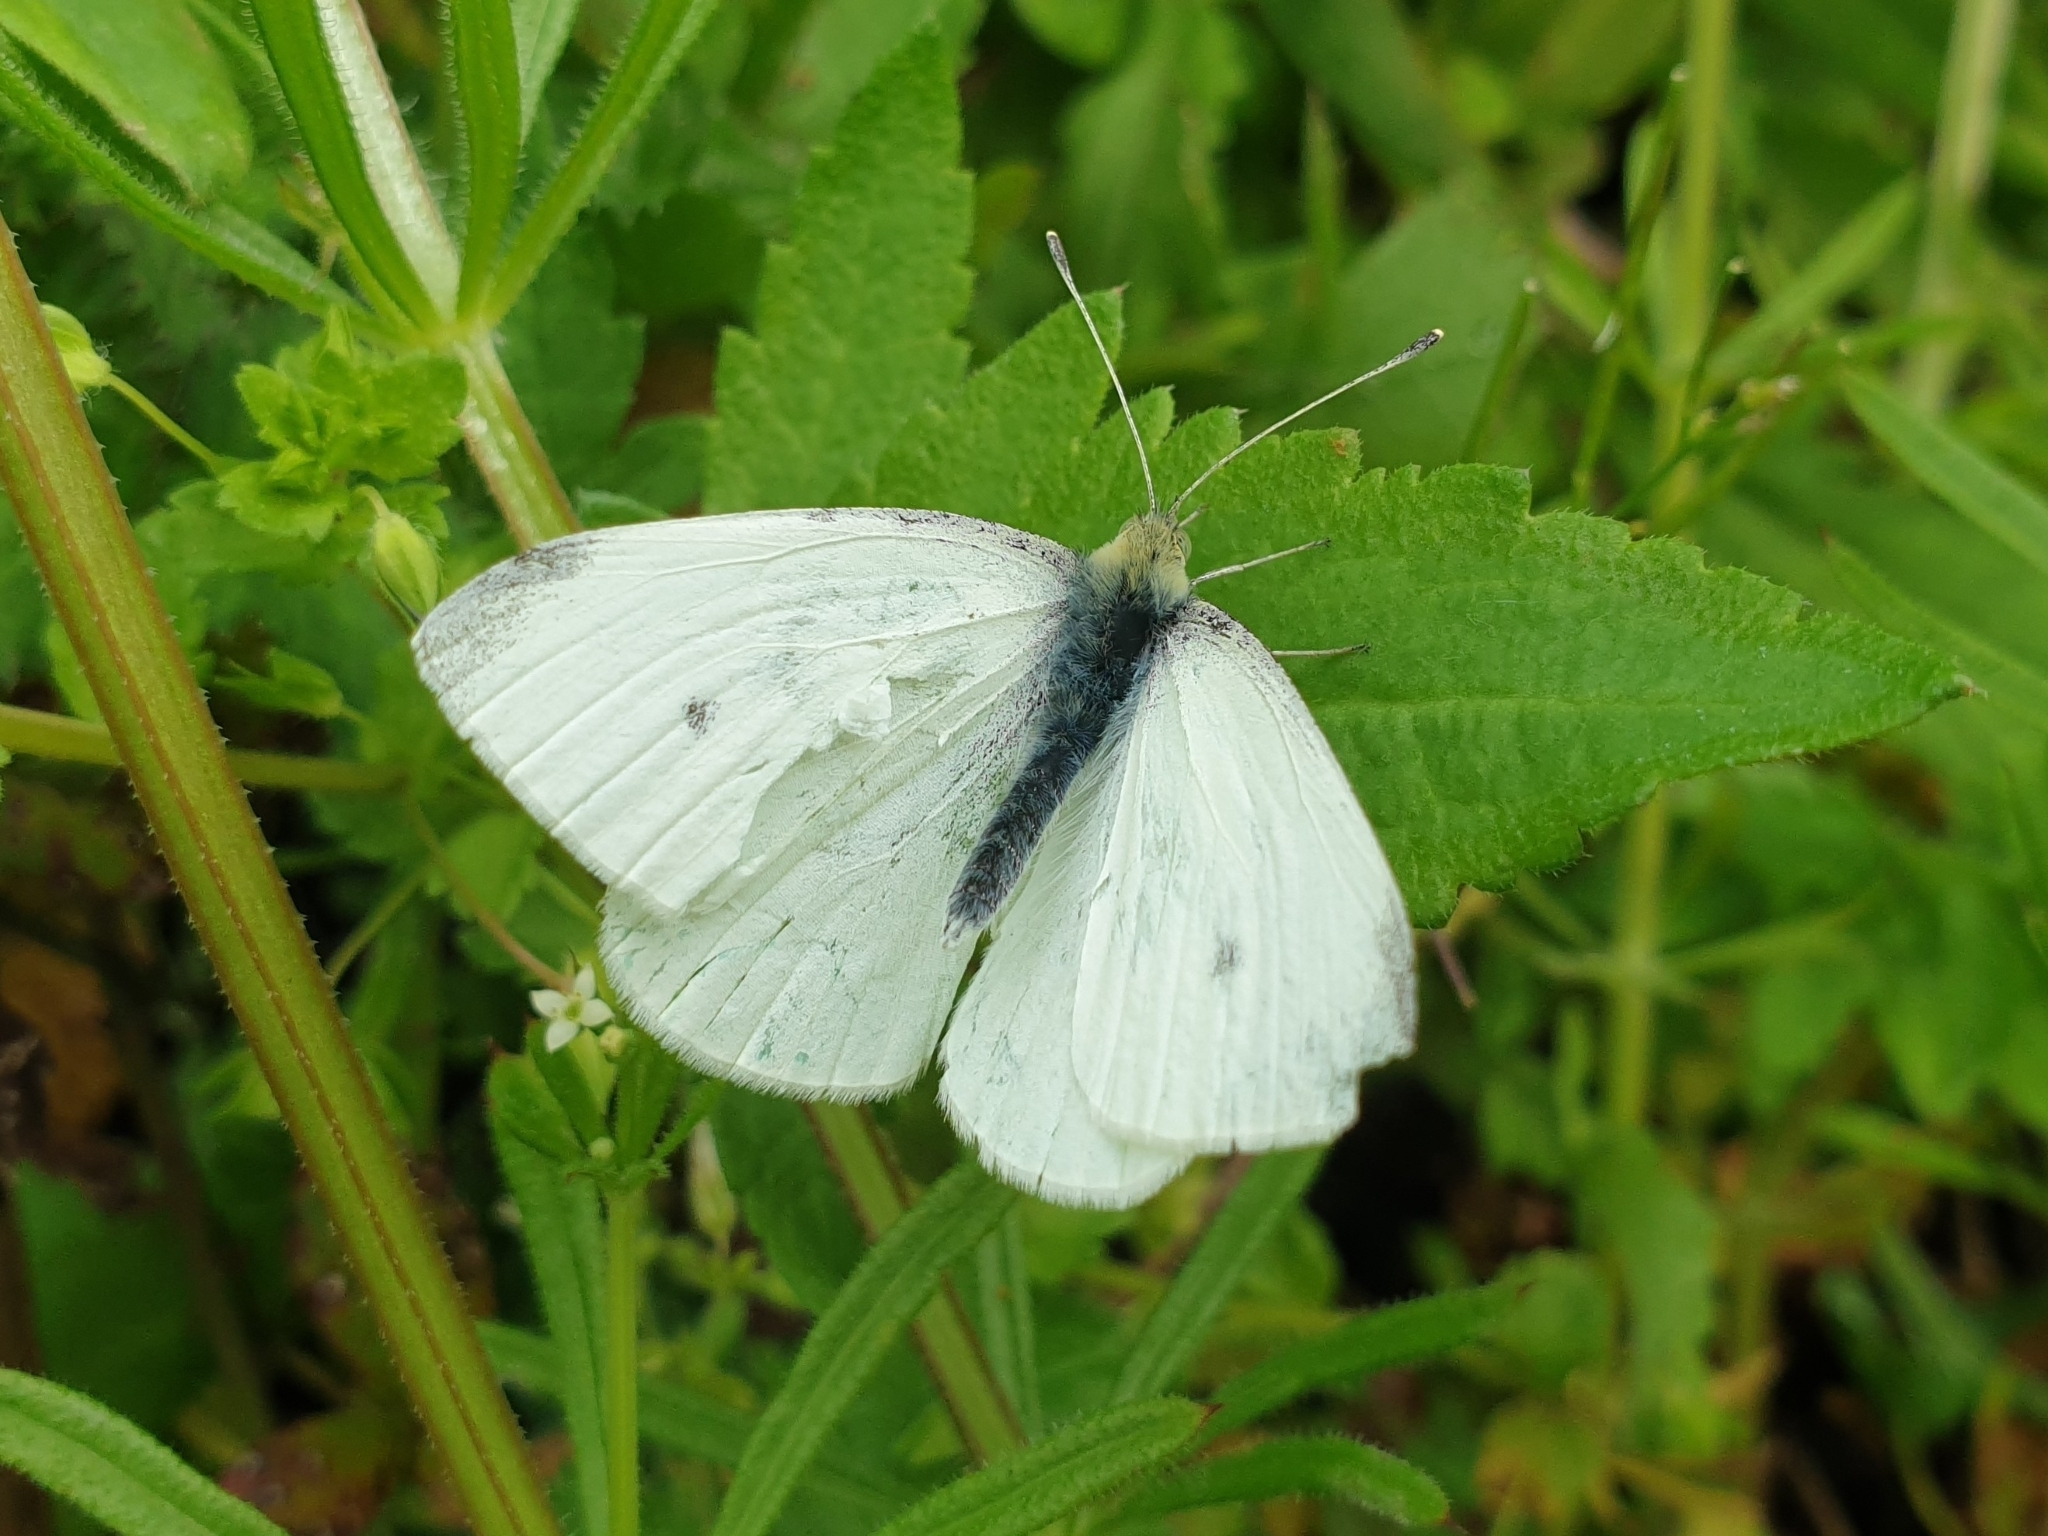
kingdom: Animalia
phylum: Arthropoda
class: Insecta
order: Lepidoptera
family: Pieridae
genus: Pieris
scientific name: Pieris rapae
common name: Small white
